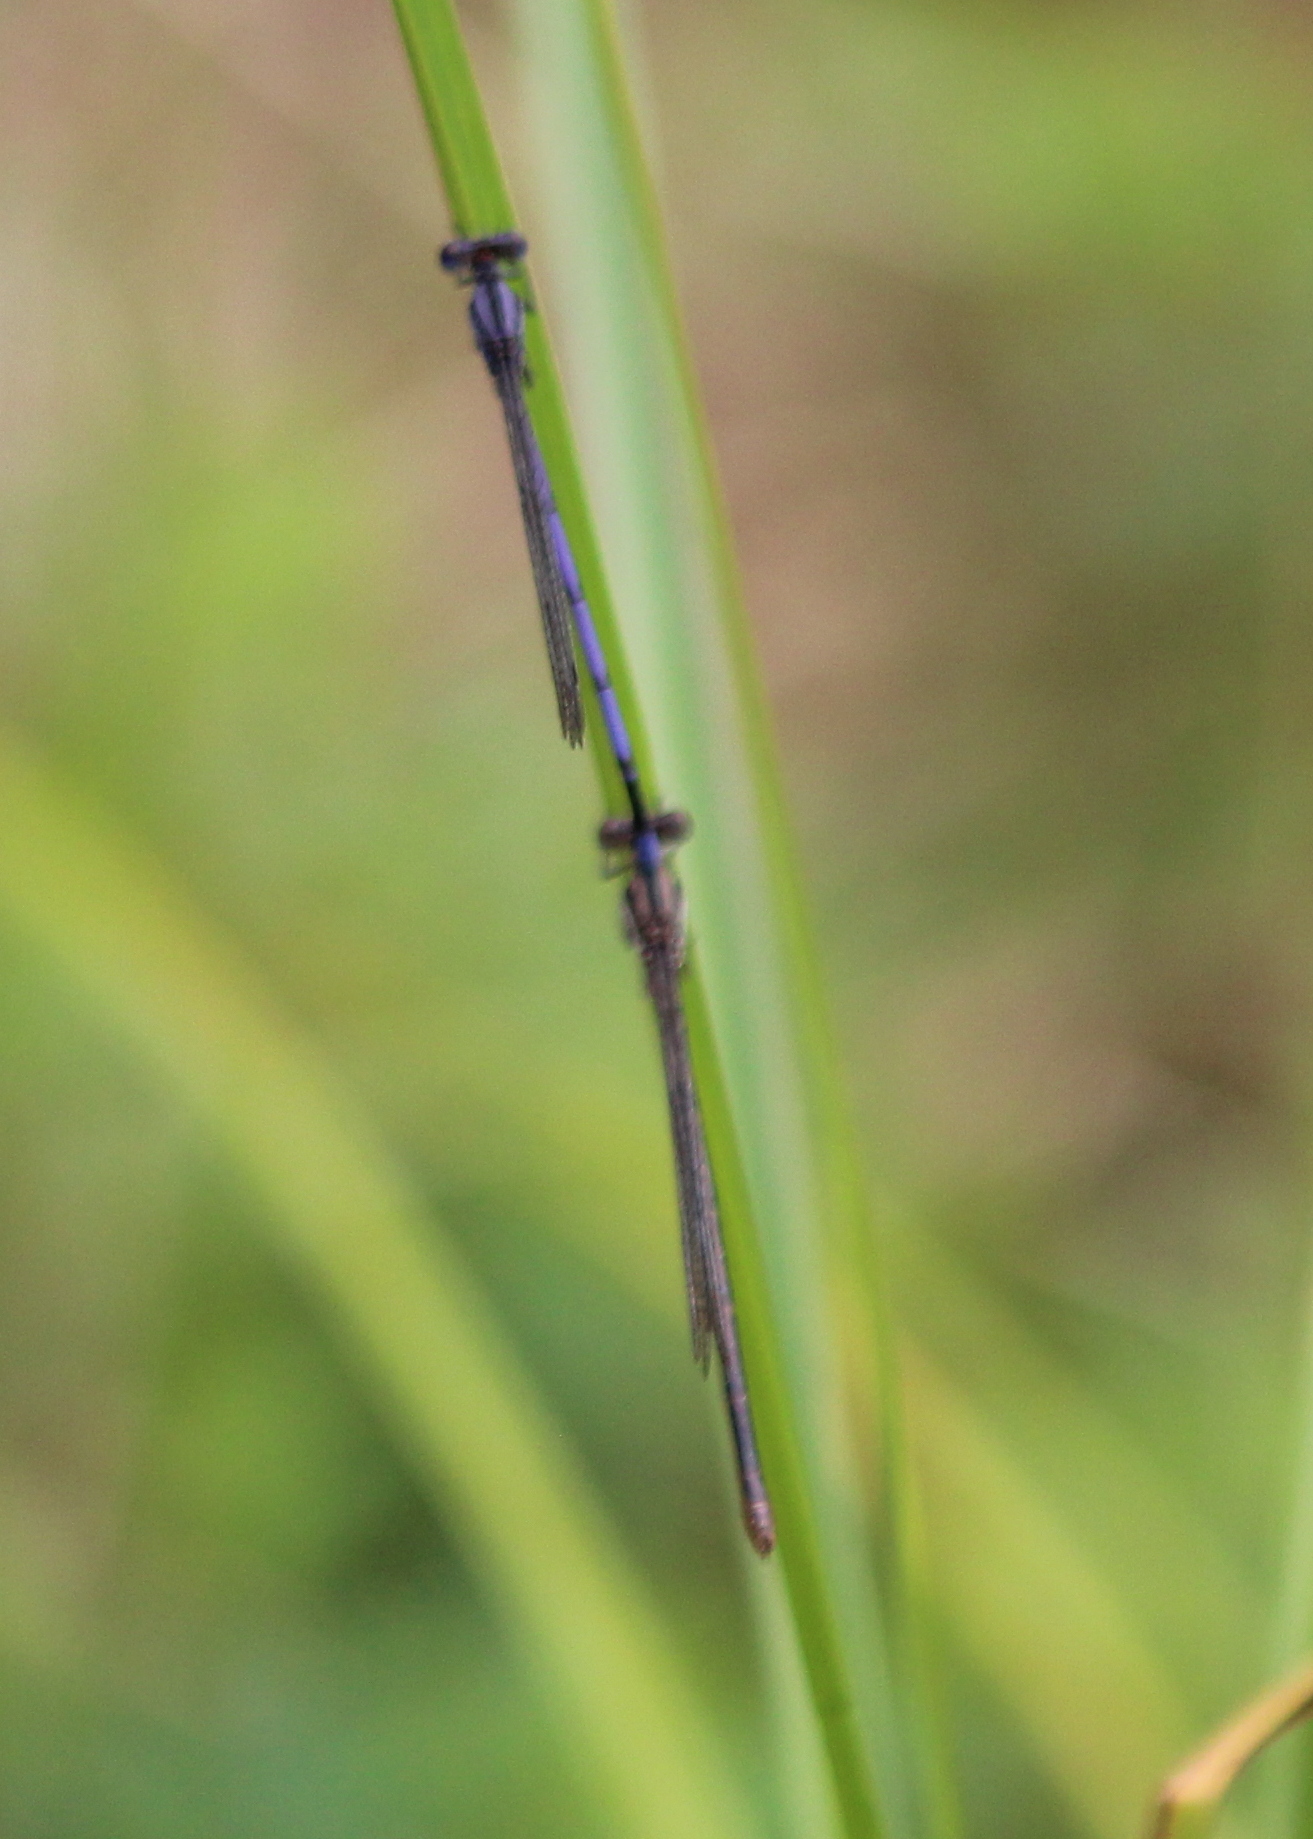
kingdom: Animalia
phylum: Arthropoda
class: Insecta
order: Odonata
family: Coenagrionidae
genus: Argia
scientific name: Argia fumipennis
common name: Variable dancer
